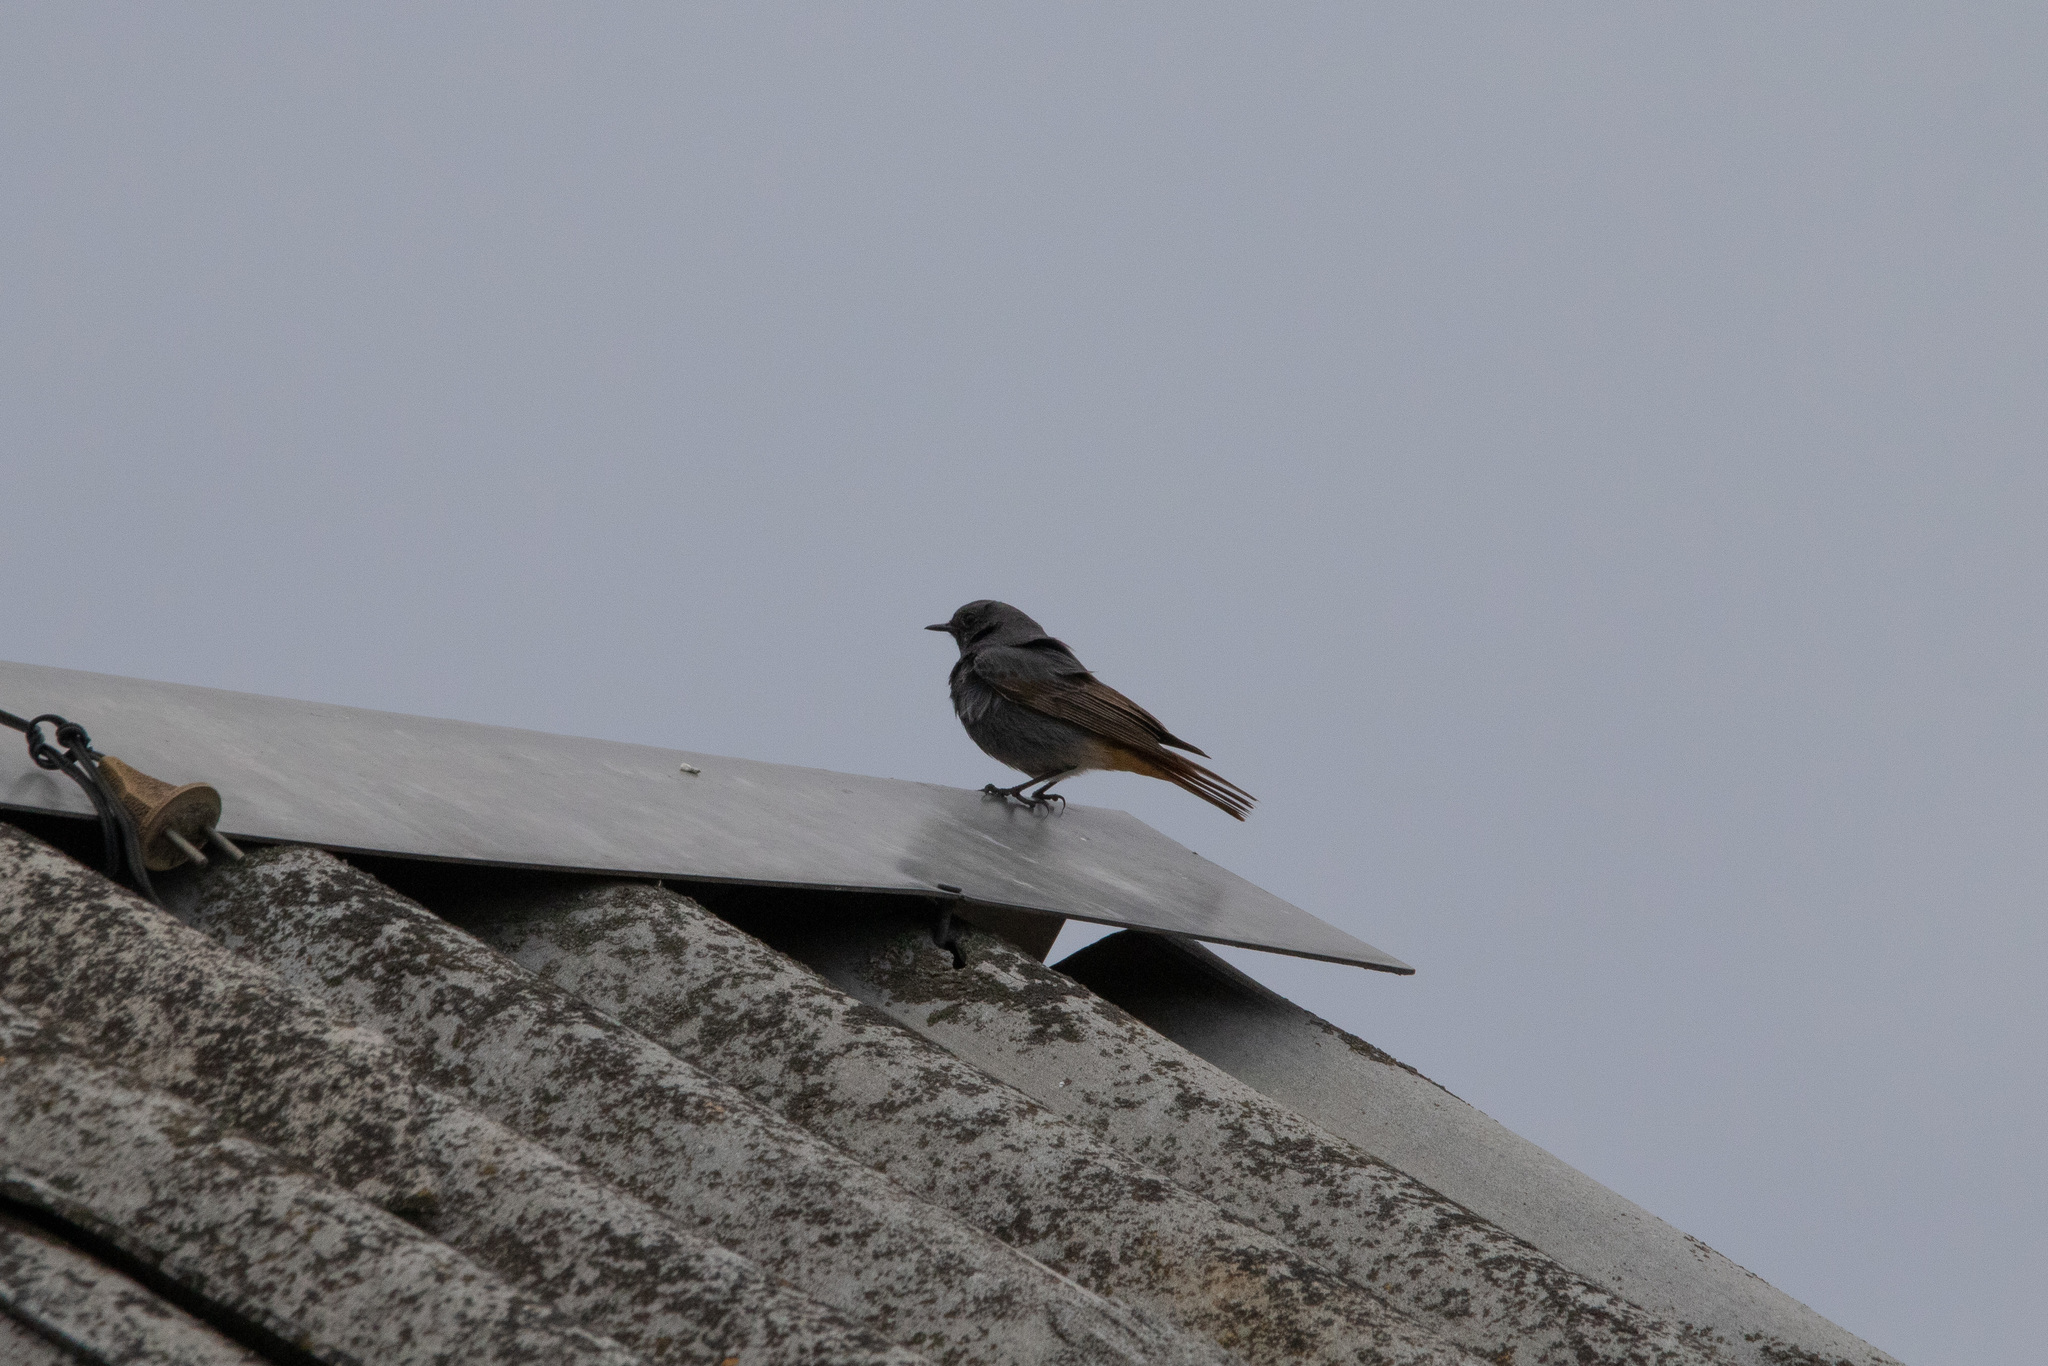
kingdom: Animalia
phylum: Chordata
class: Aves
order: Passeriformes
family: Muscicapidae
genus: Phoenicurus
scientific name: Phoenicurus ochruros
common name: Black redstart
